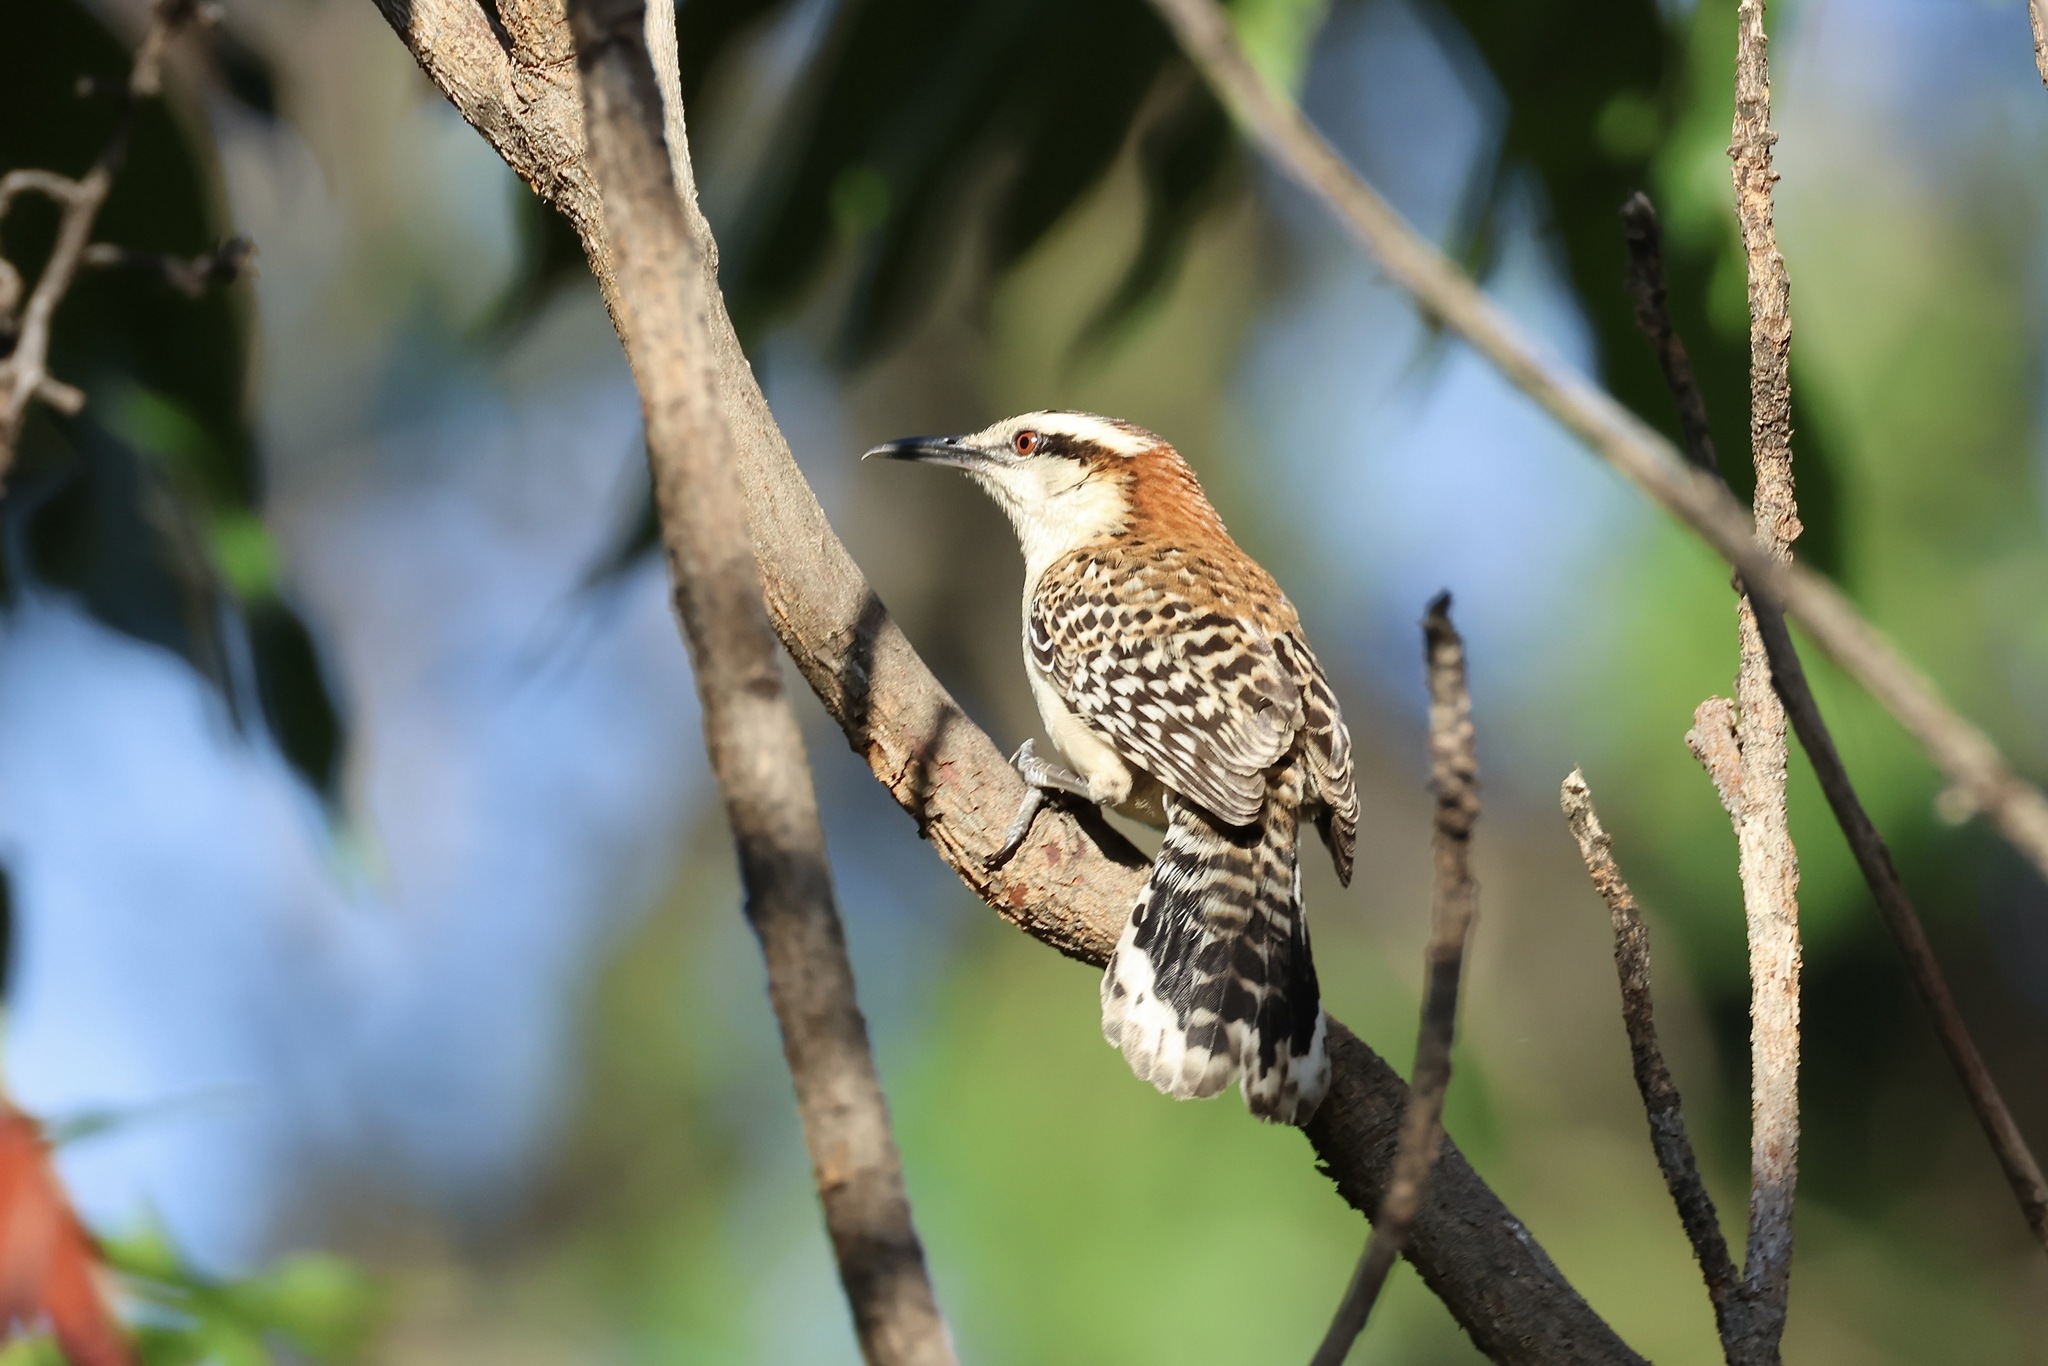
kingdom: Animalia
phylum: Chordata
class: Aves
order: Passeriformes
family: Troglodytidae
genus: Campylorhynchus
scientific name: Campylorhynchus rufinucha
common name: Rufous-naped wren
